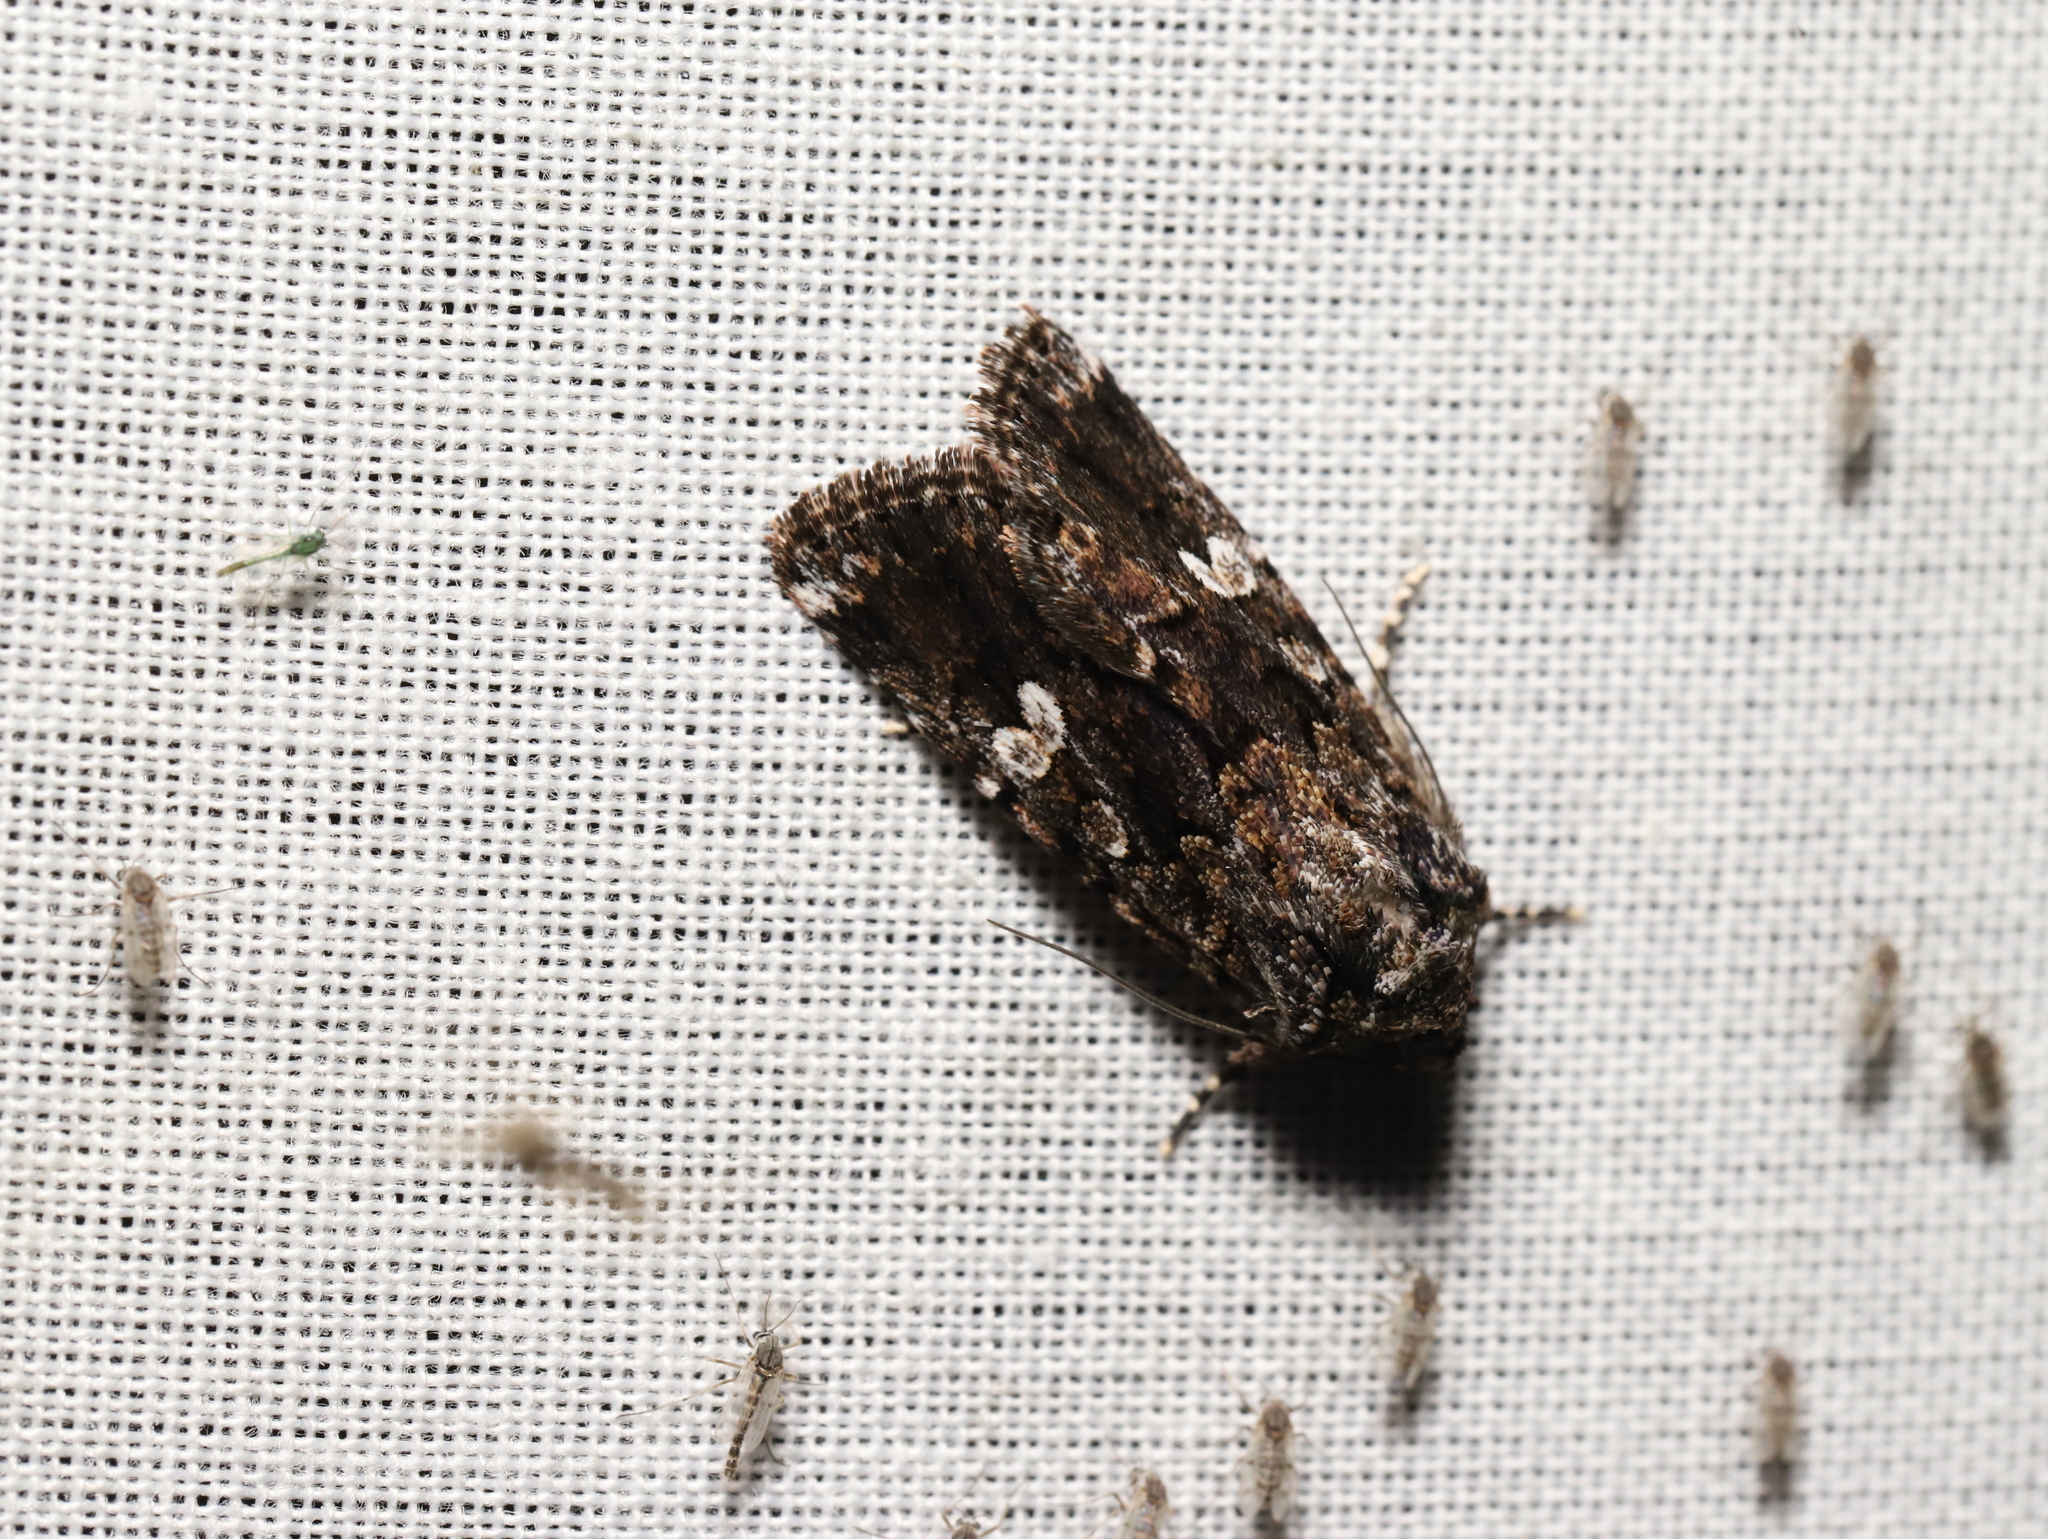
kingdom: Animalia
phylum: Arthropoda
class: Insecta
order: Lepidoptera
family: Noctuidae
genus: Ectopatria
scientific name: Ectopatria horologa
